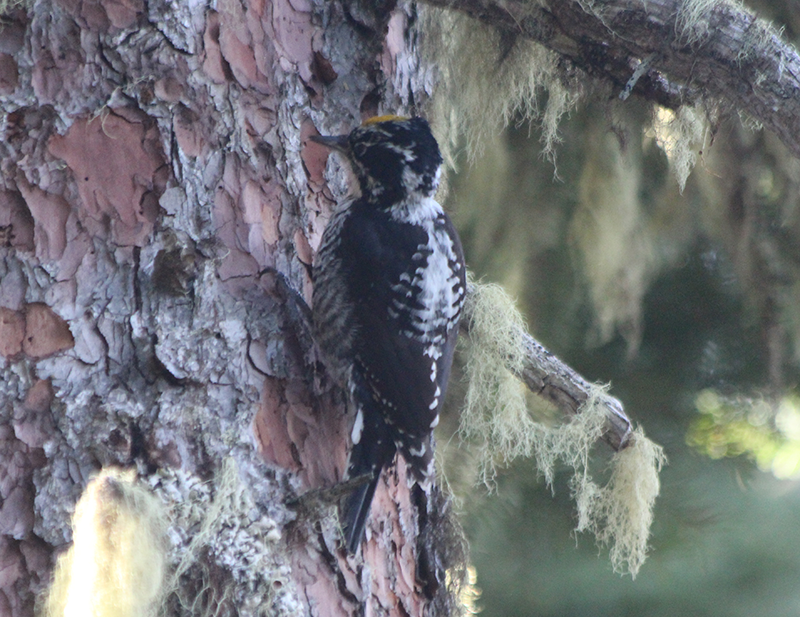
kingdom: Animalia
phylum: Chordata
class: Aves
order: Piciformes
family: Picidae
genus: Picoides
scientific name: Picoides dorsalis
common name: American three-toed woodpecker
